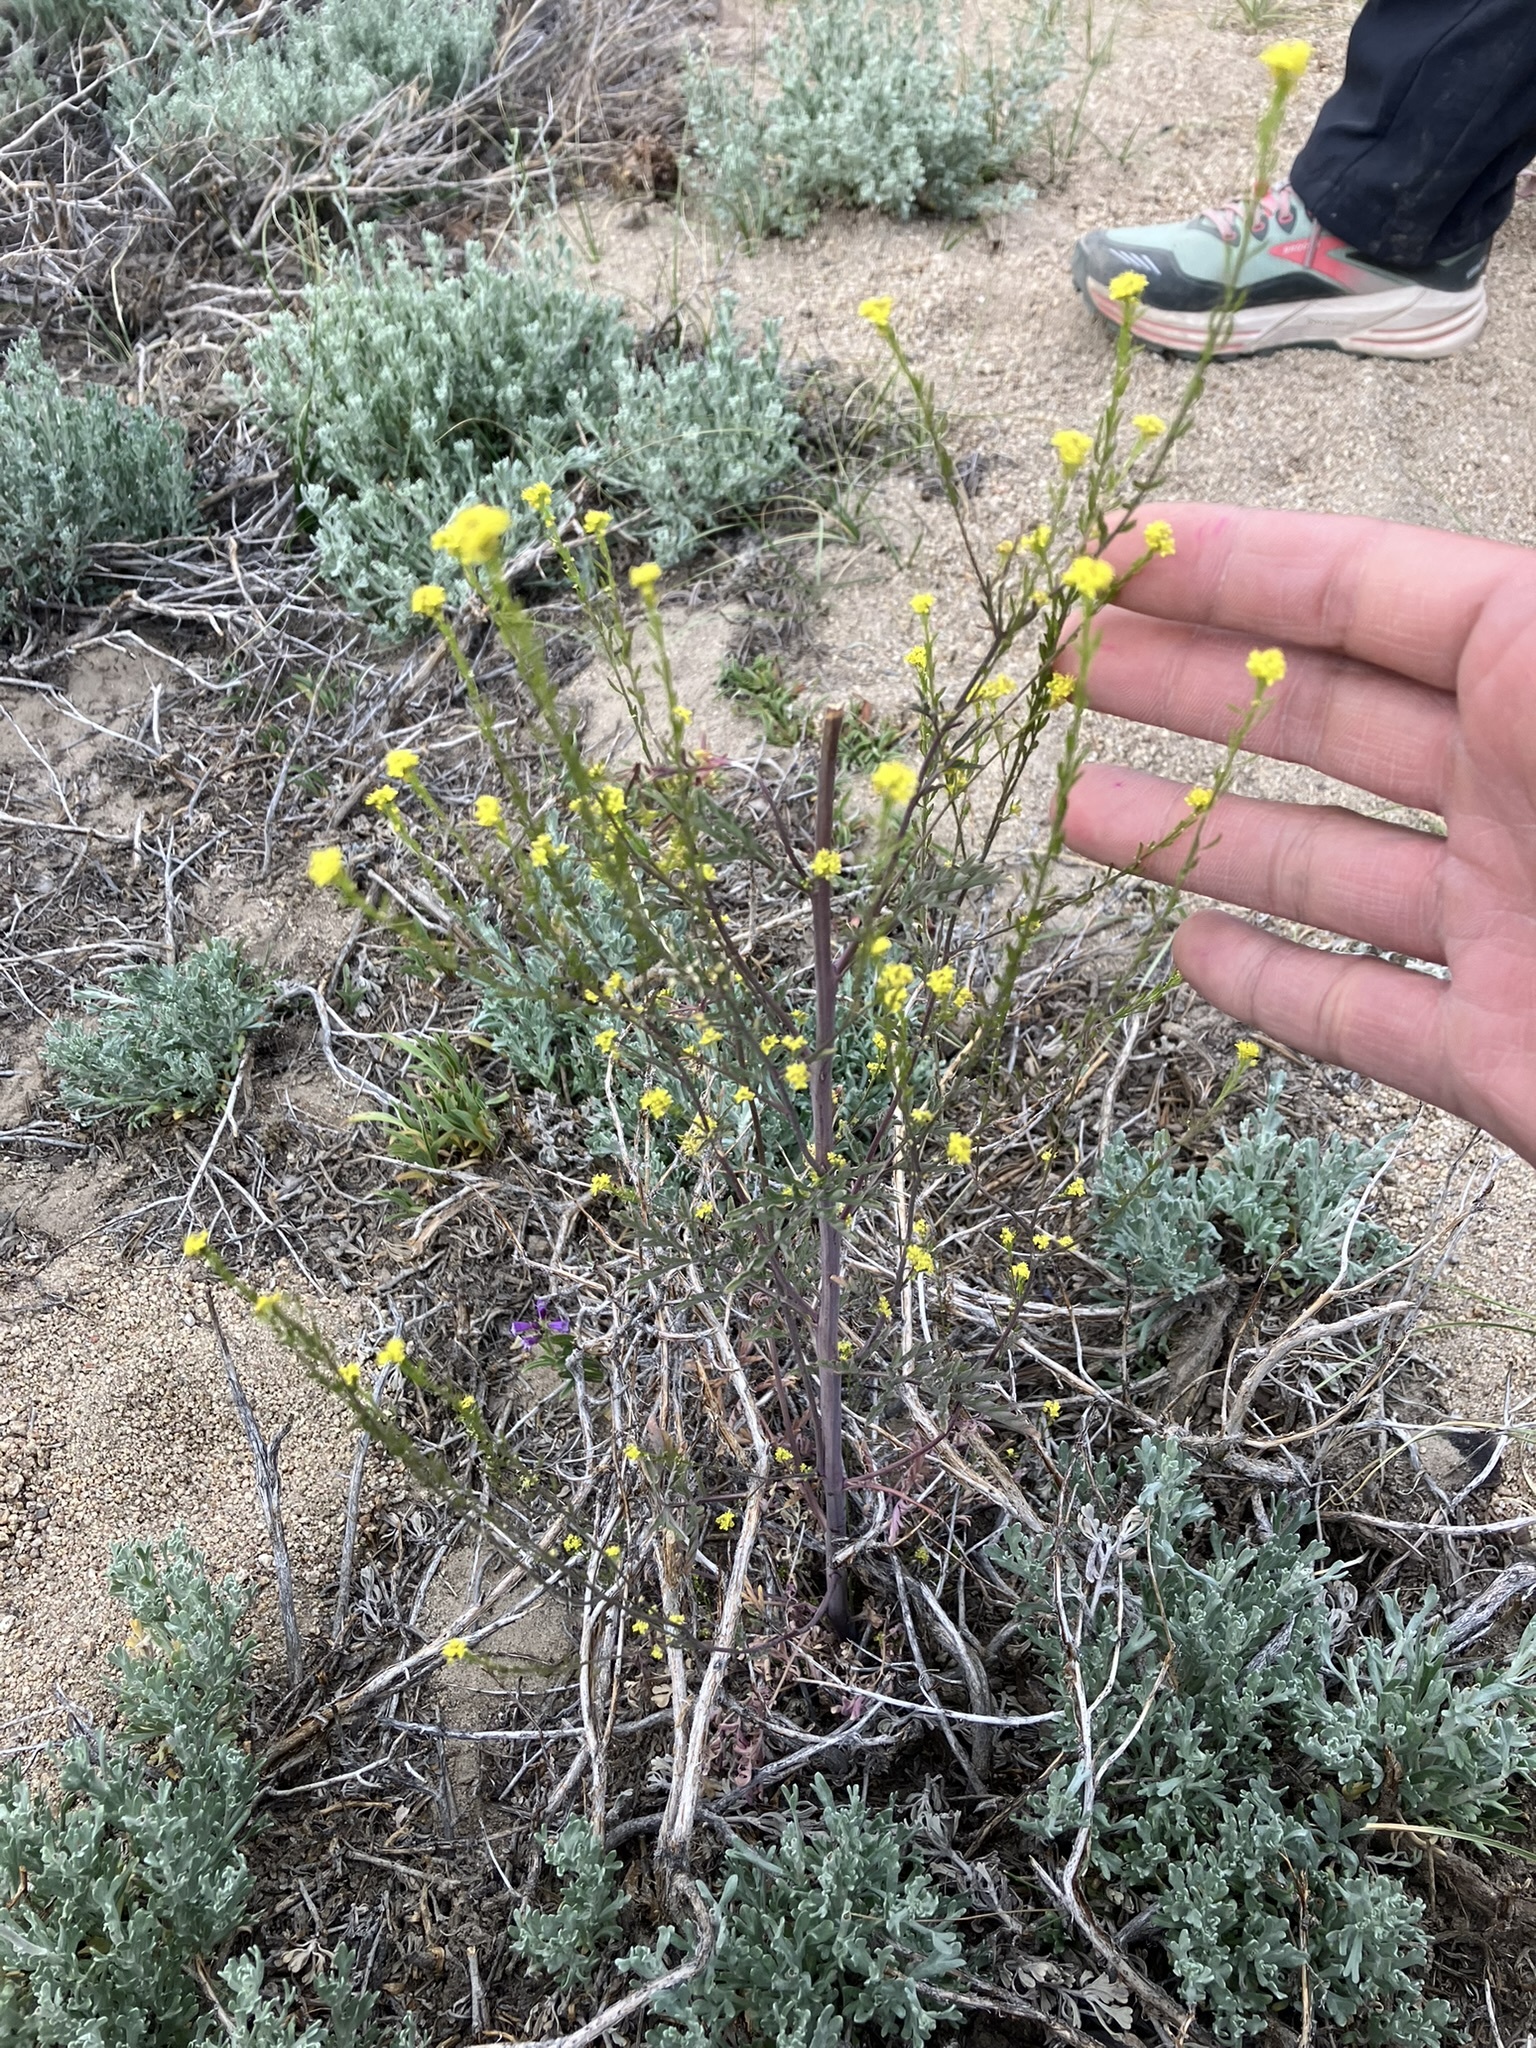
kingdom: Plantae
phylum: Tracheophyta
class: Magnoliopsida
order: Brassicales
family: Brassicaceae
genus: Descurainia
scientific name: Descurainia californica
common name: California tansy mustard
